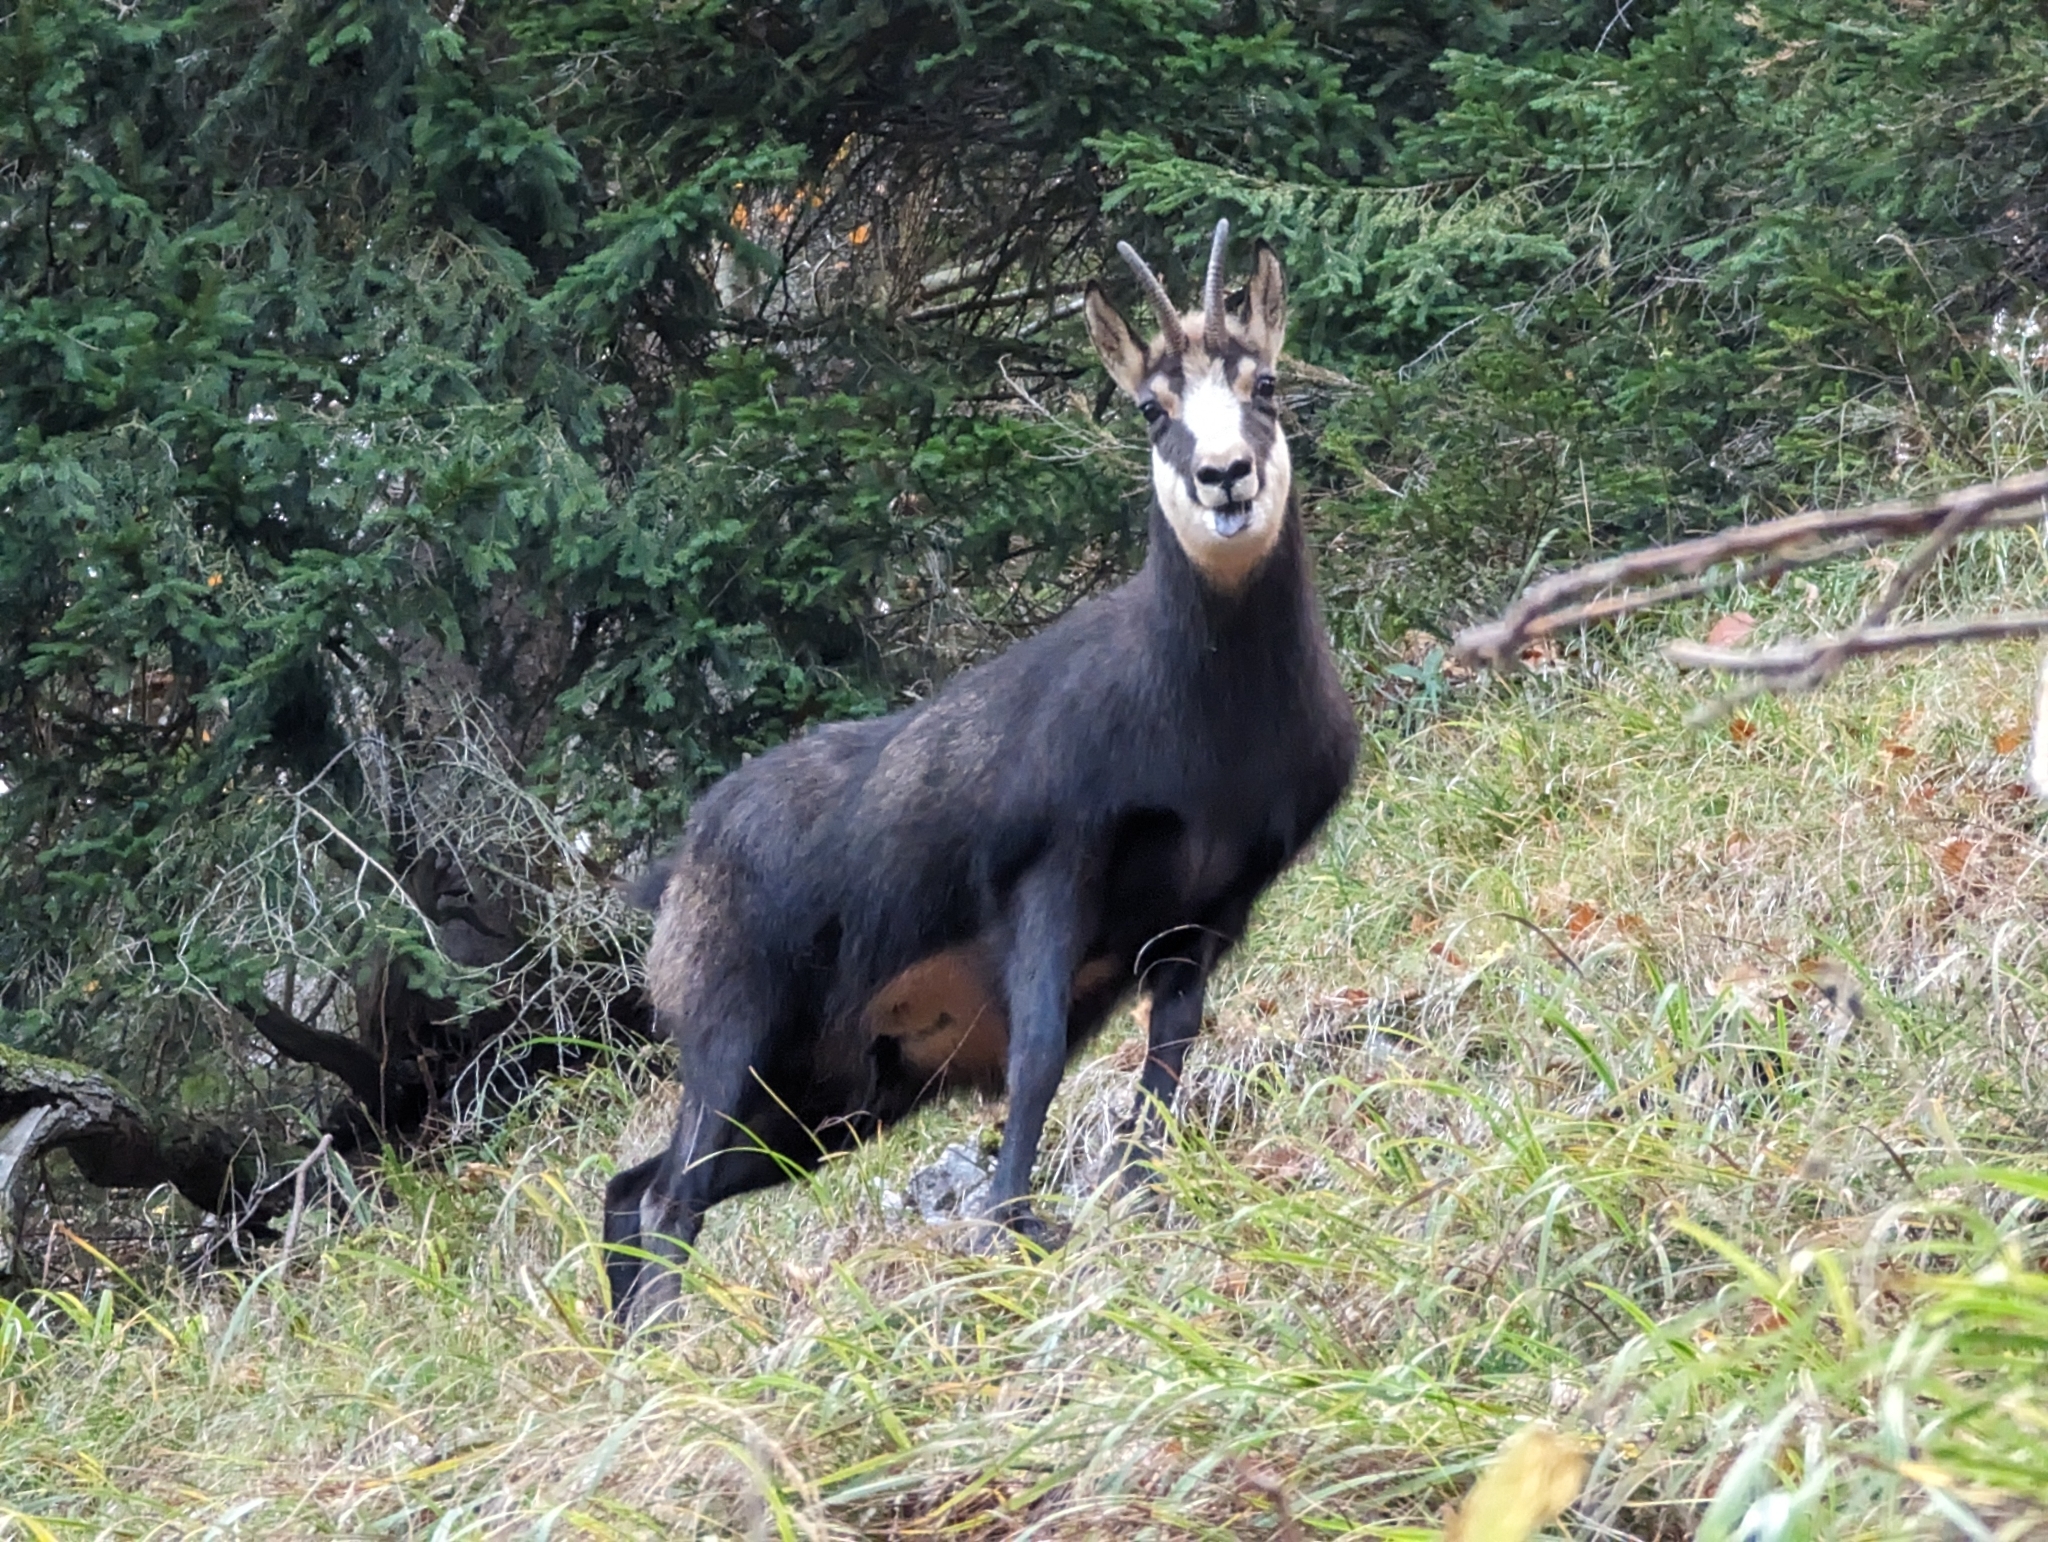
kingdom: Animalia
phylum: Chordata
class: Mammalia
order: Artiodactyla
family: Bovidae
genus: Rupicapra
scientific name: Rupicapra rupicapra
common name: Chamois
